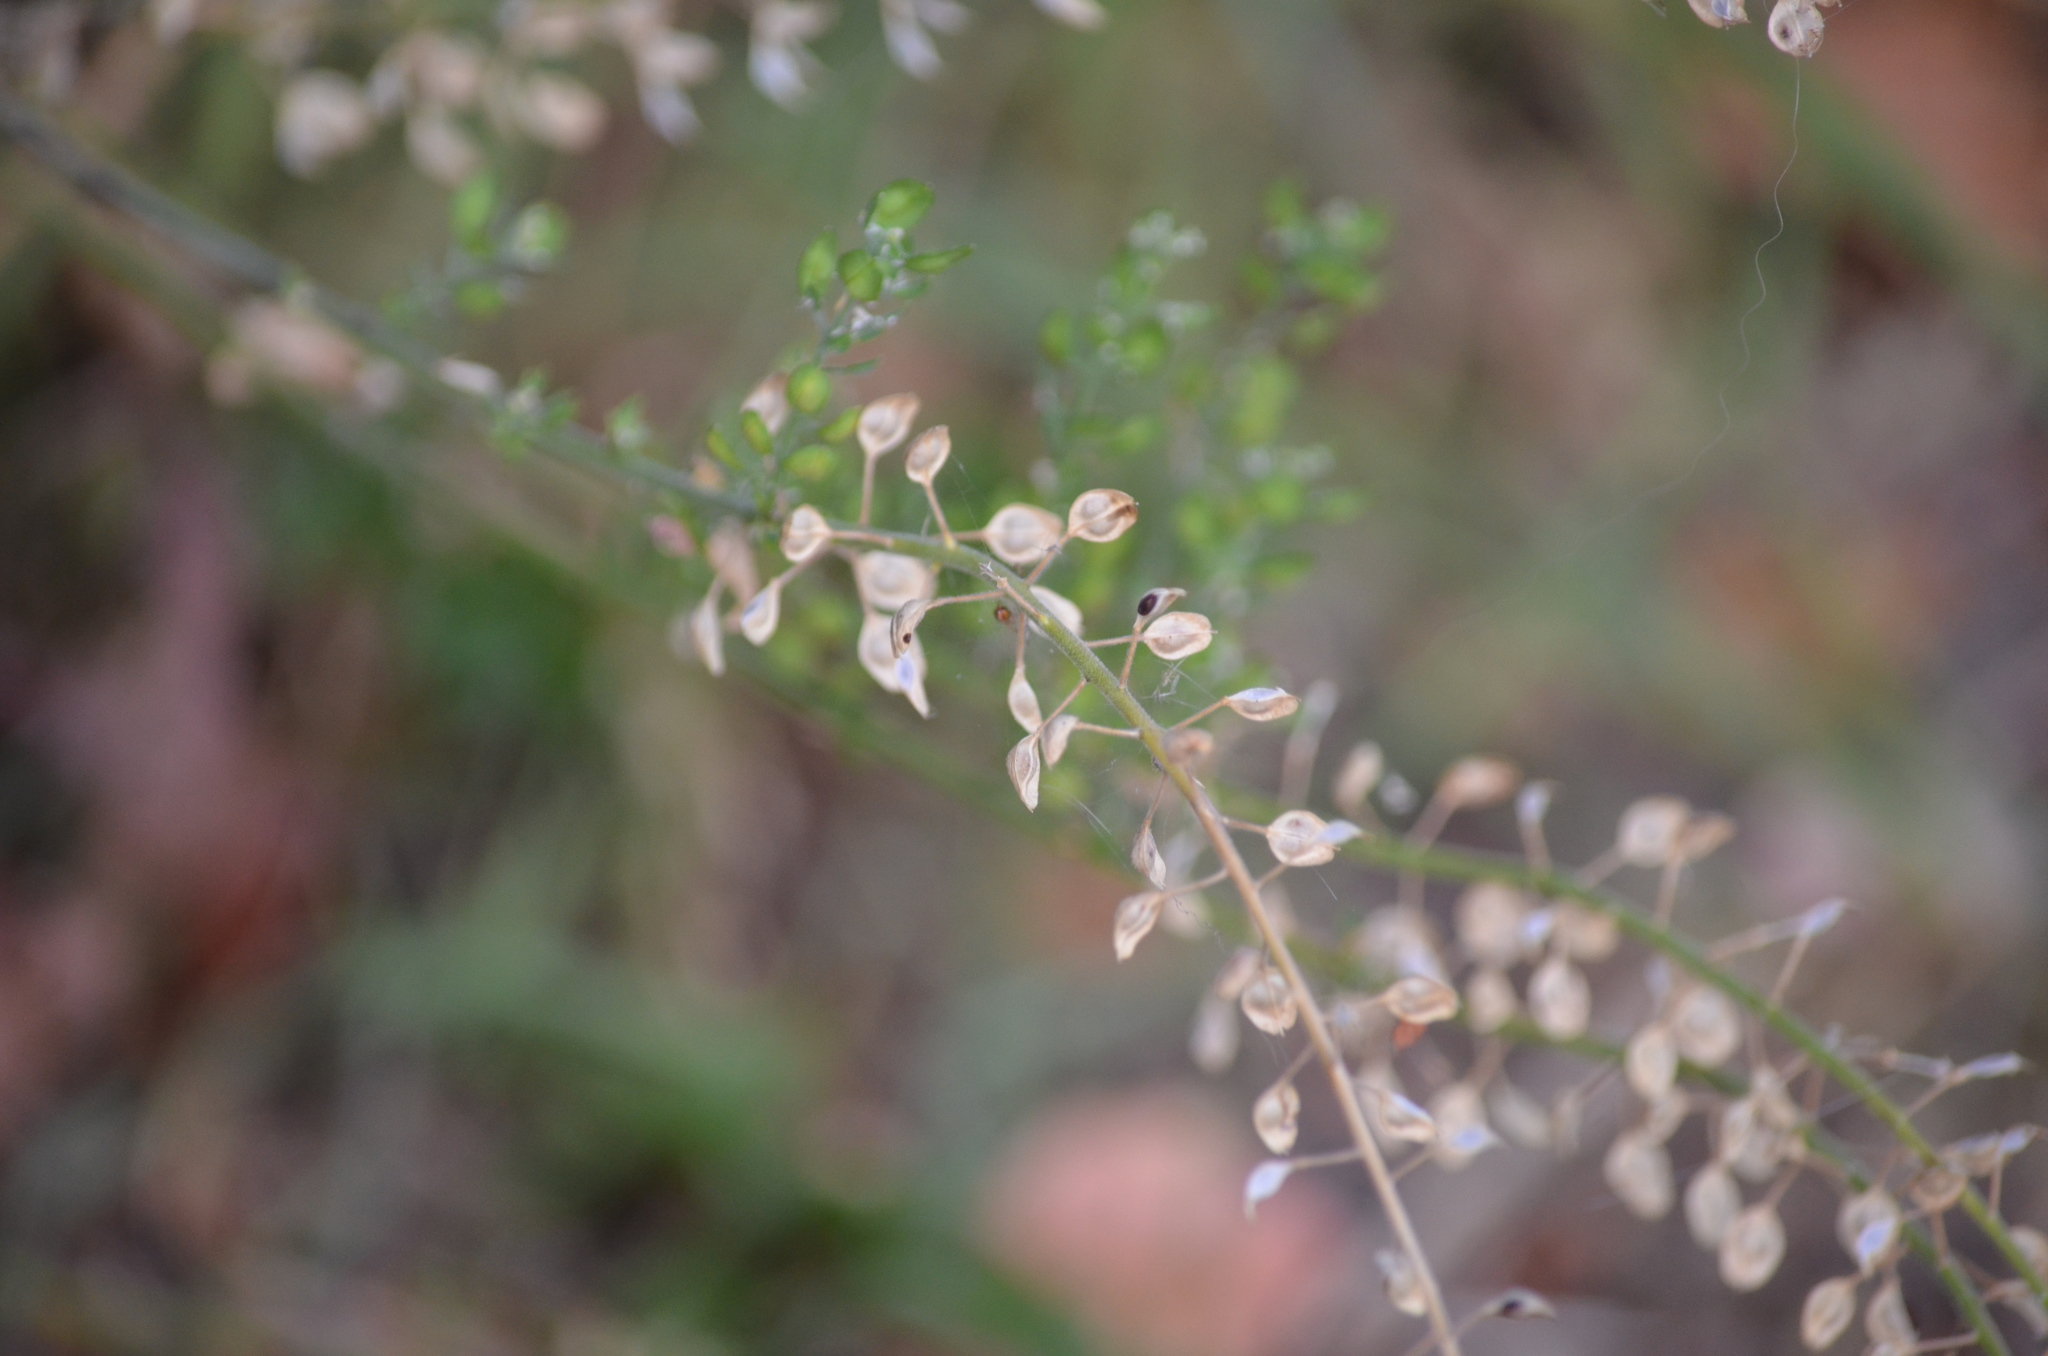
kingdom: Plantae
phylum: Tracheophyta
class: Magnoliopsida
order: Brassicales
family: Brassicaceae
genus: Lepidium
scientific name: Lepidium campestre
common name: Field pepperwort
